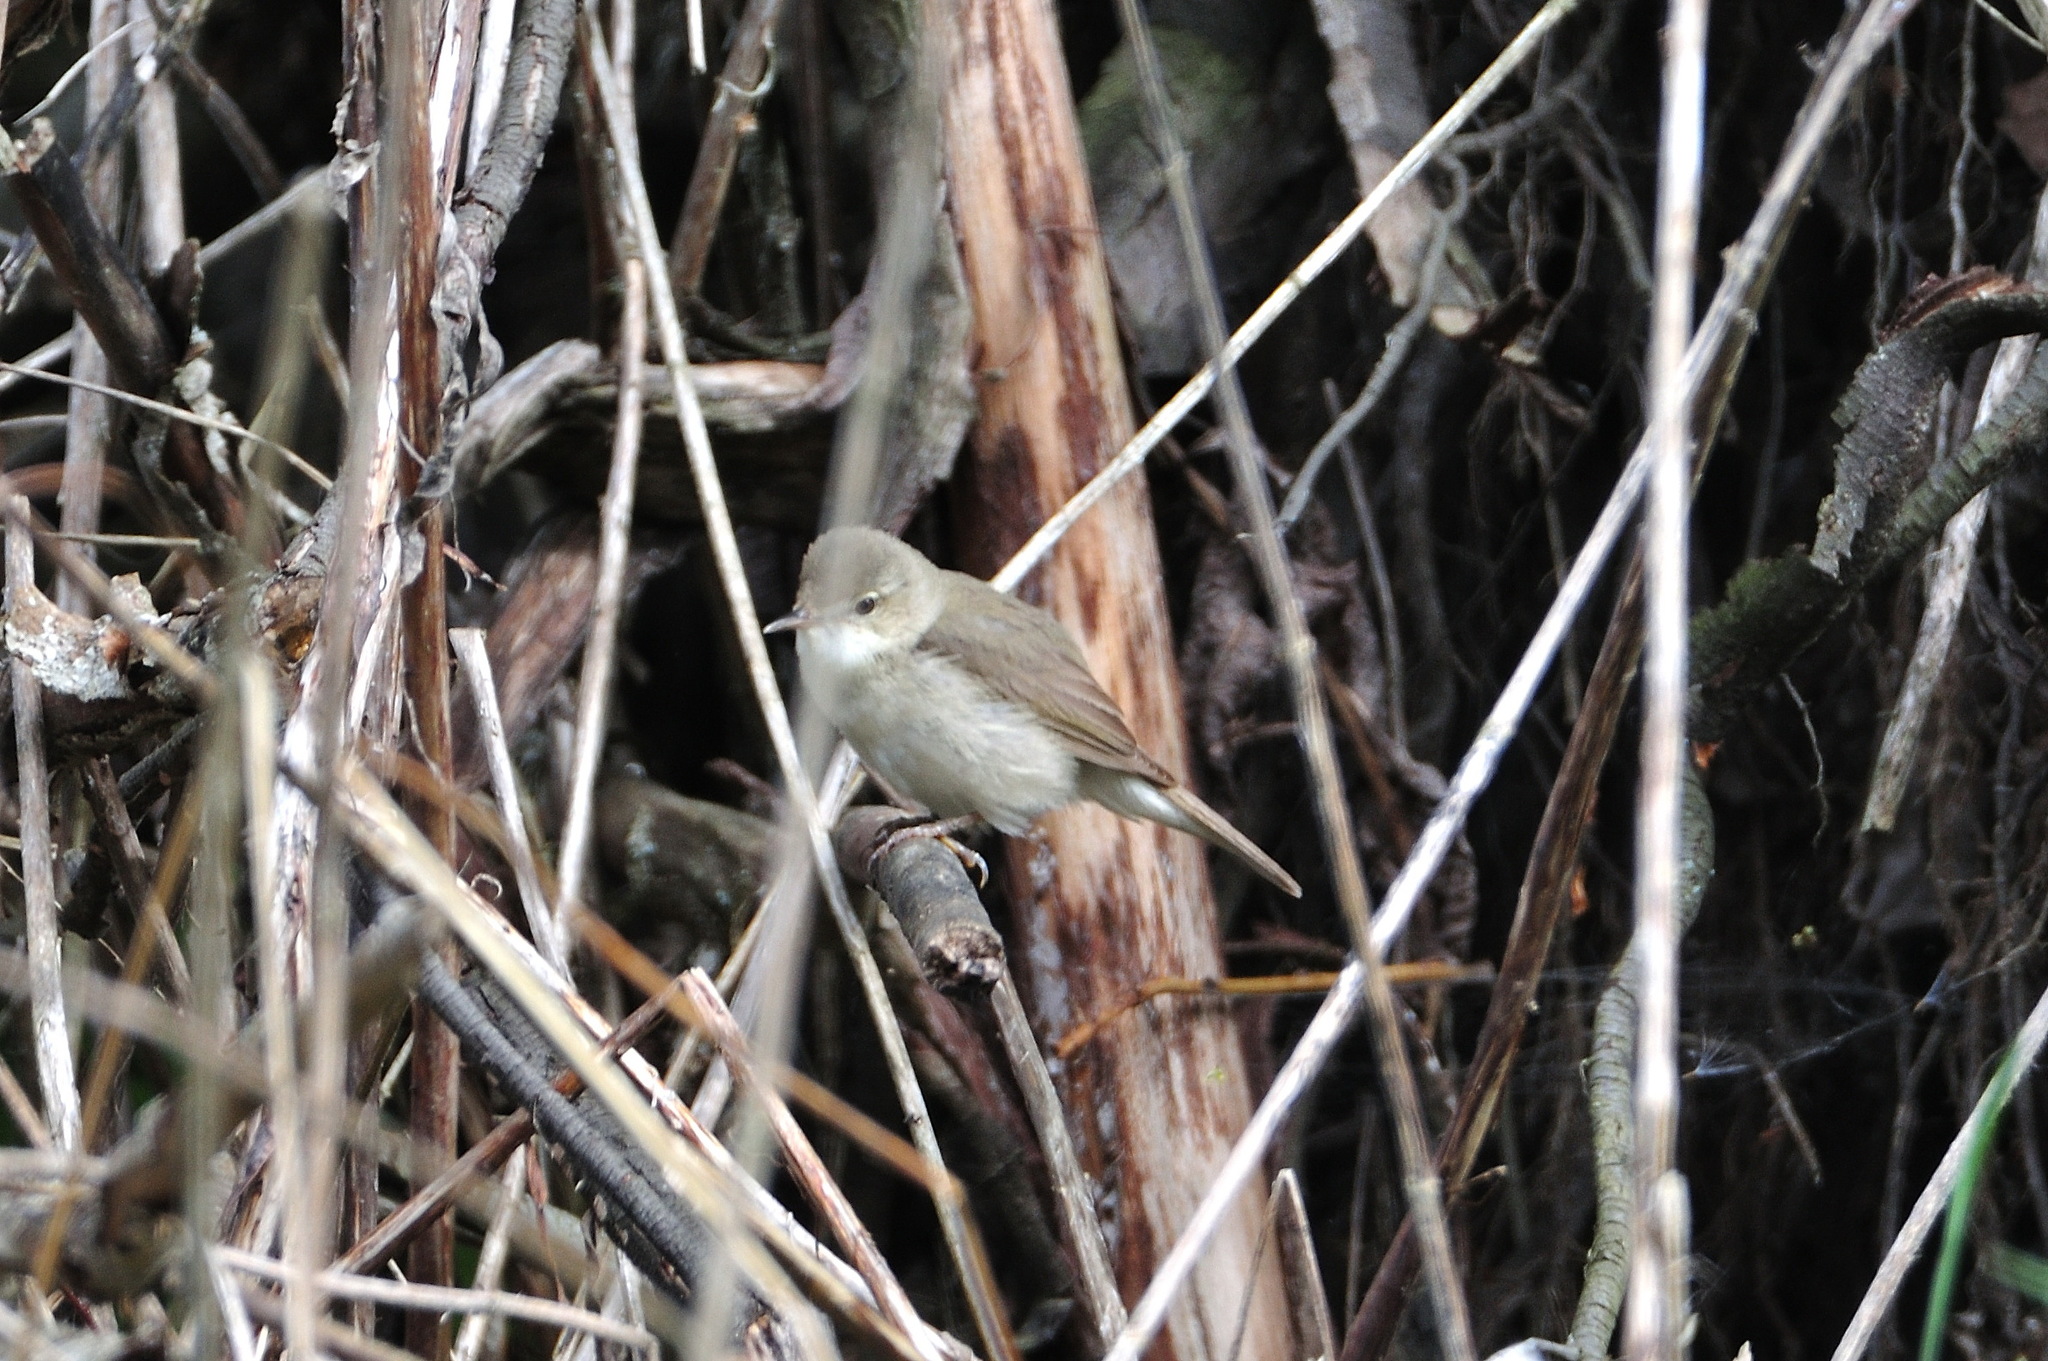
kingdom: Animalia
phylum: Chordata
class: Aves
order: Passeriformes
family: Acrocephalidae
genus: Acrocephalus
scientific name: Acrocephalus dumetorum
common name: Blyth's reed warbler
